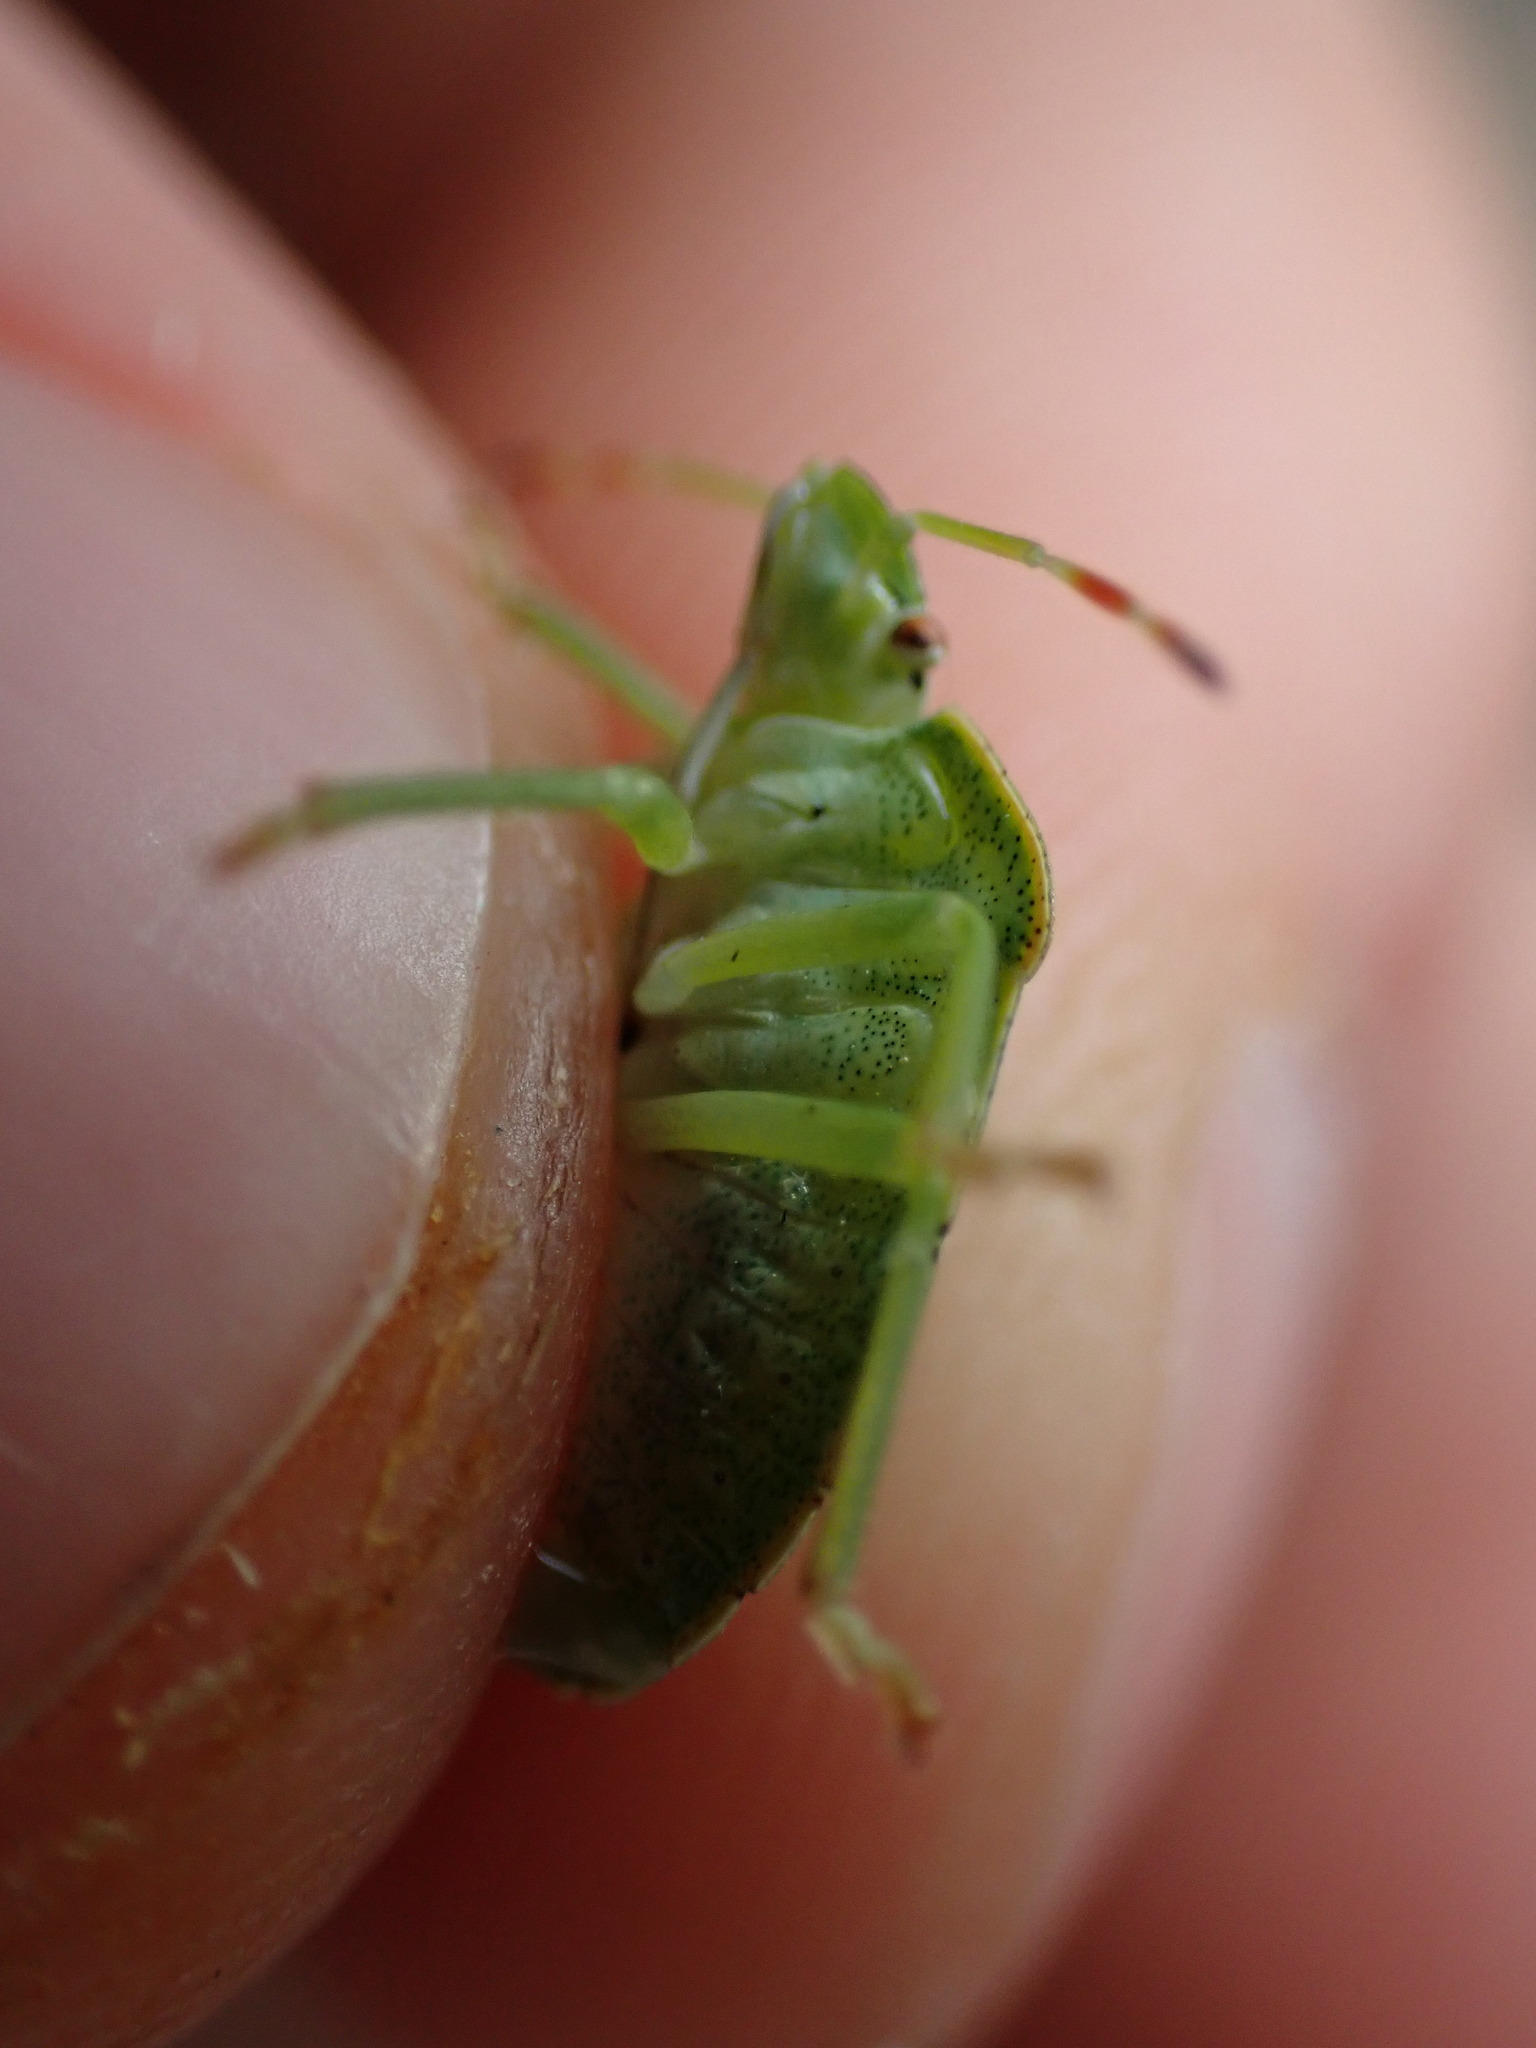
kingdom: Animalia
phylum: Arthropoda
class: Insecta
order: Hemiptera
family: Pentatomidae
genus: Palomena
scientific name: Palomena prasina
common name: Green shieldbug
